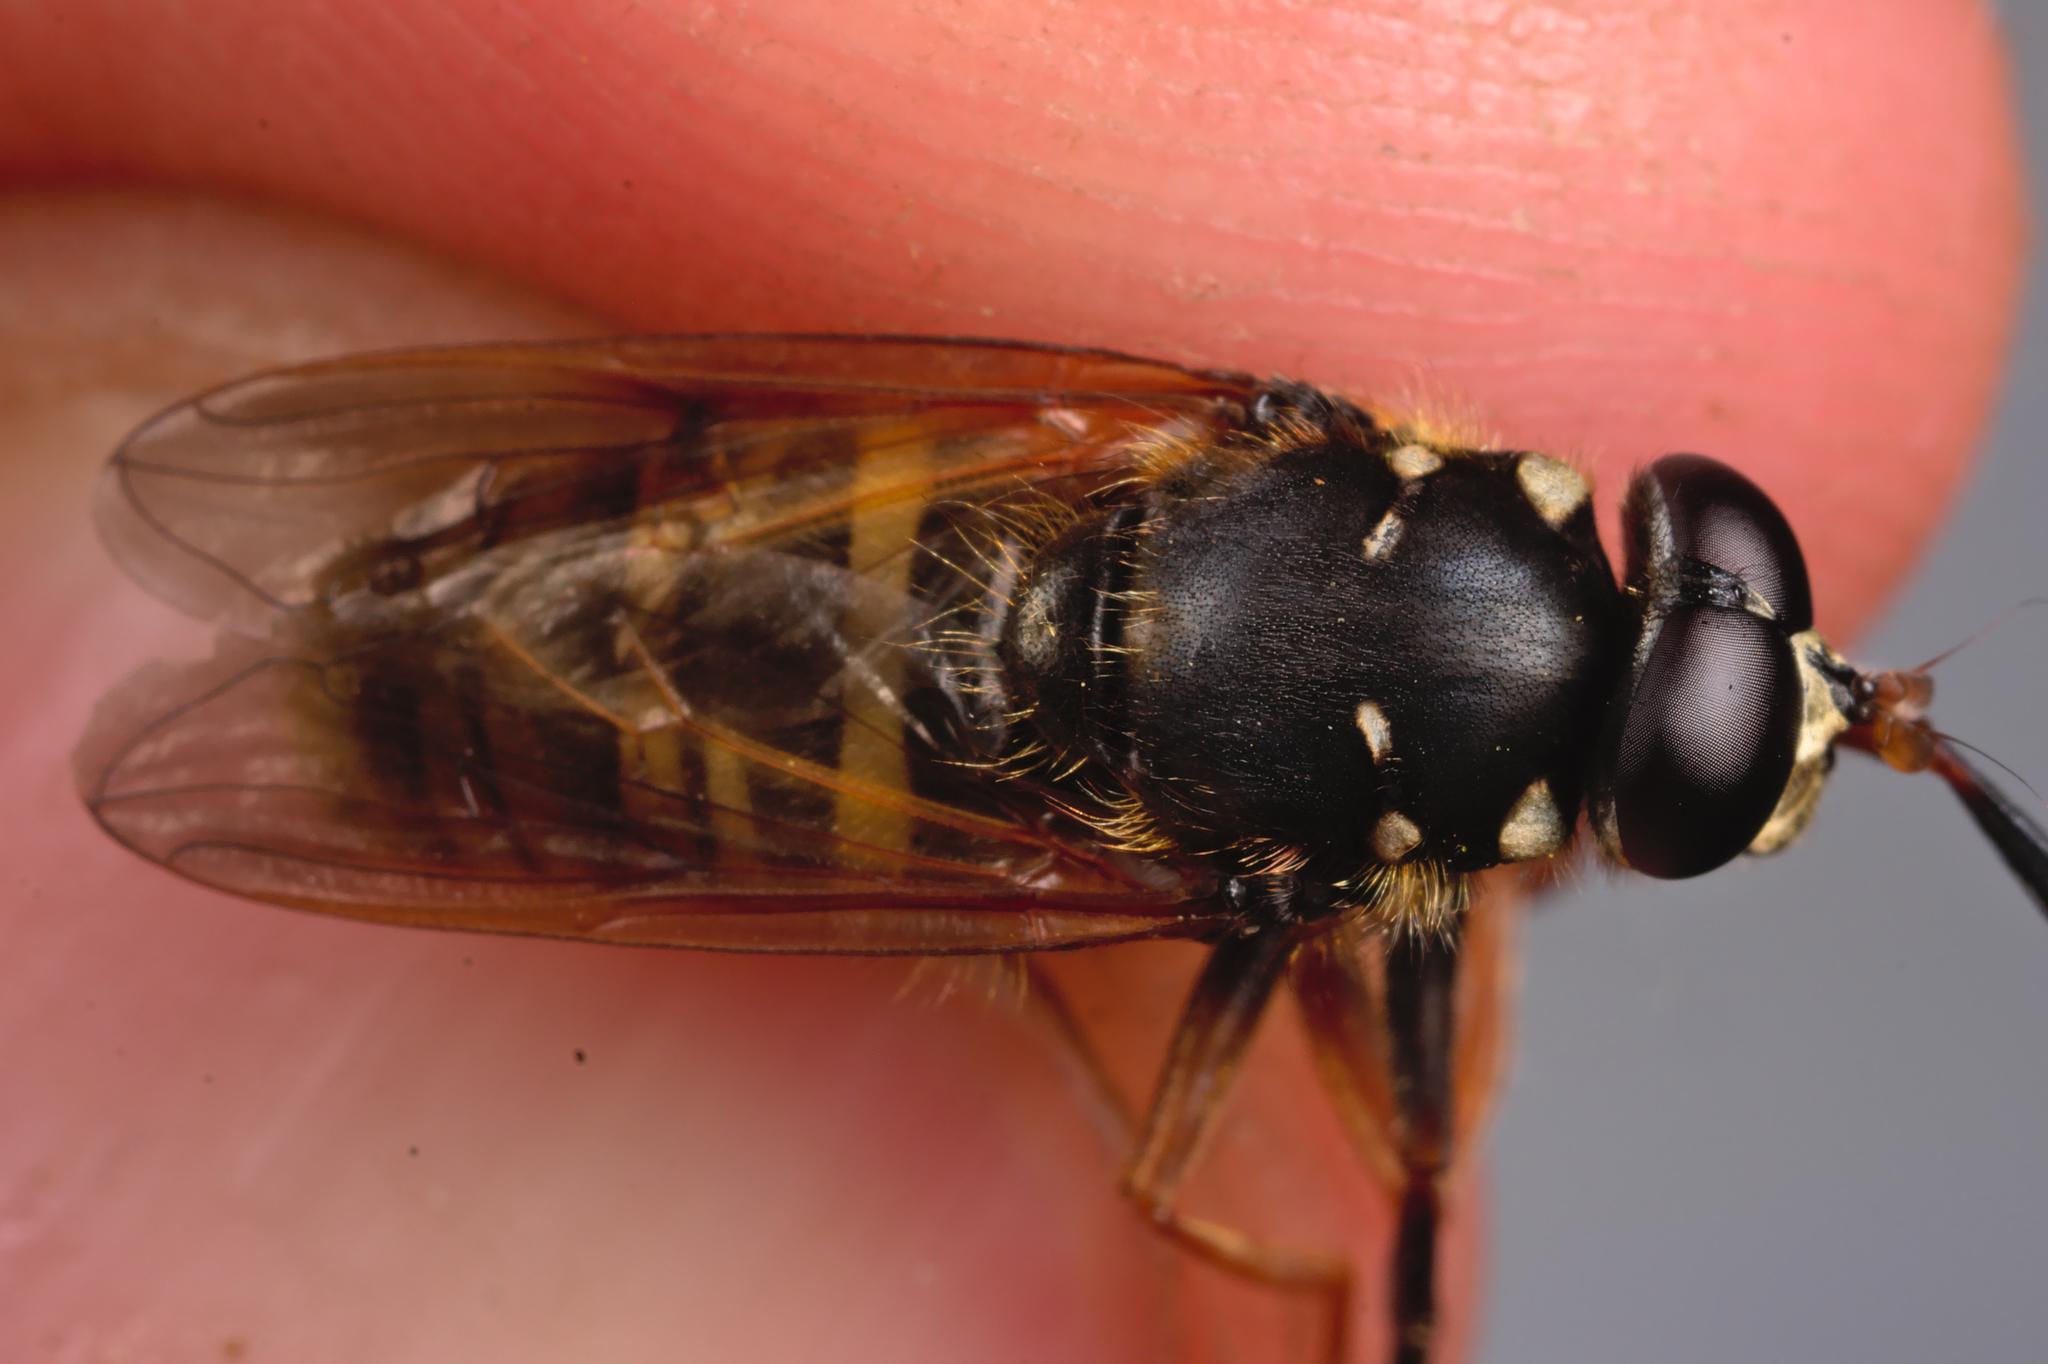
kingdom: Animalia
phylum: Arthropoda
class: Insecta
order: Diptera
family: Syrphidae
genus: Temnostoma
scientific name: Temnostoma apiforme
